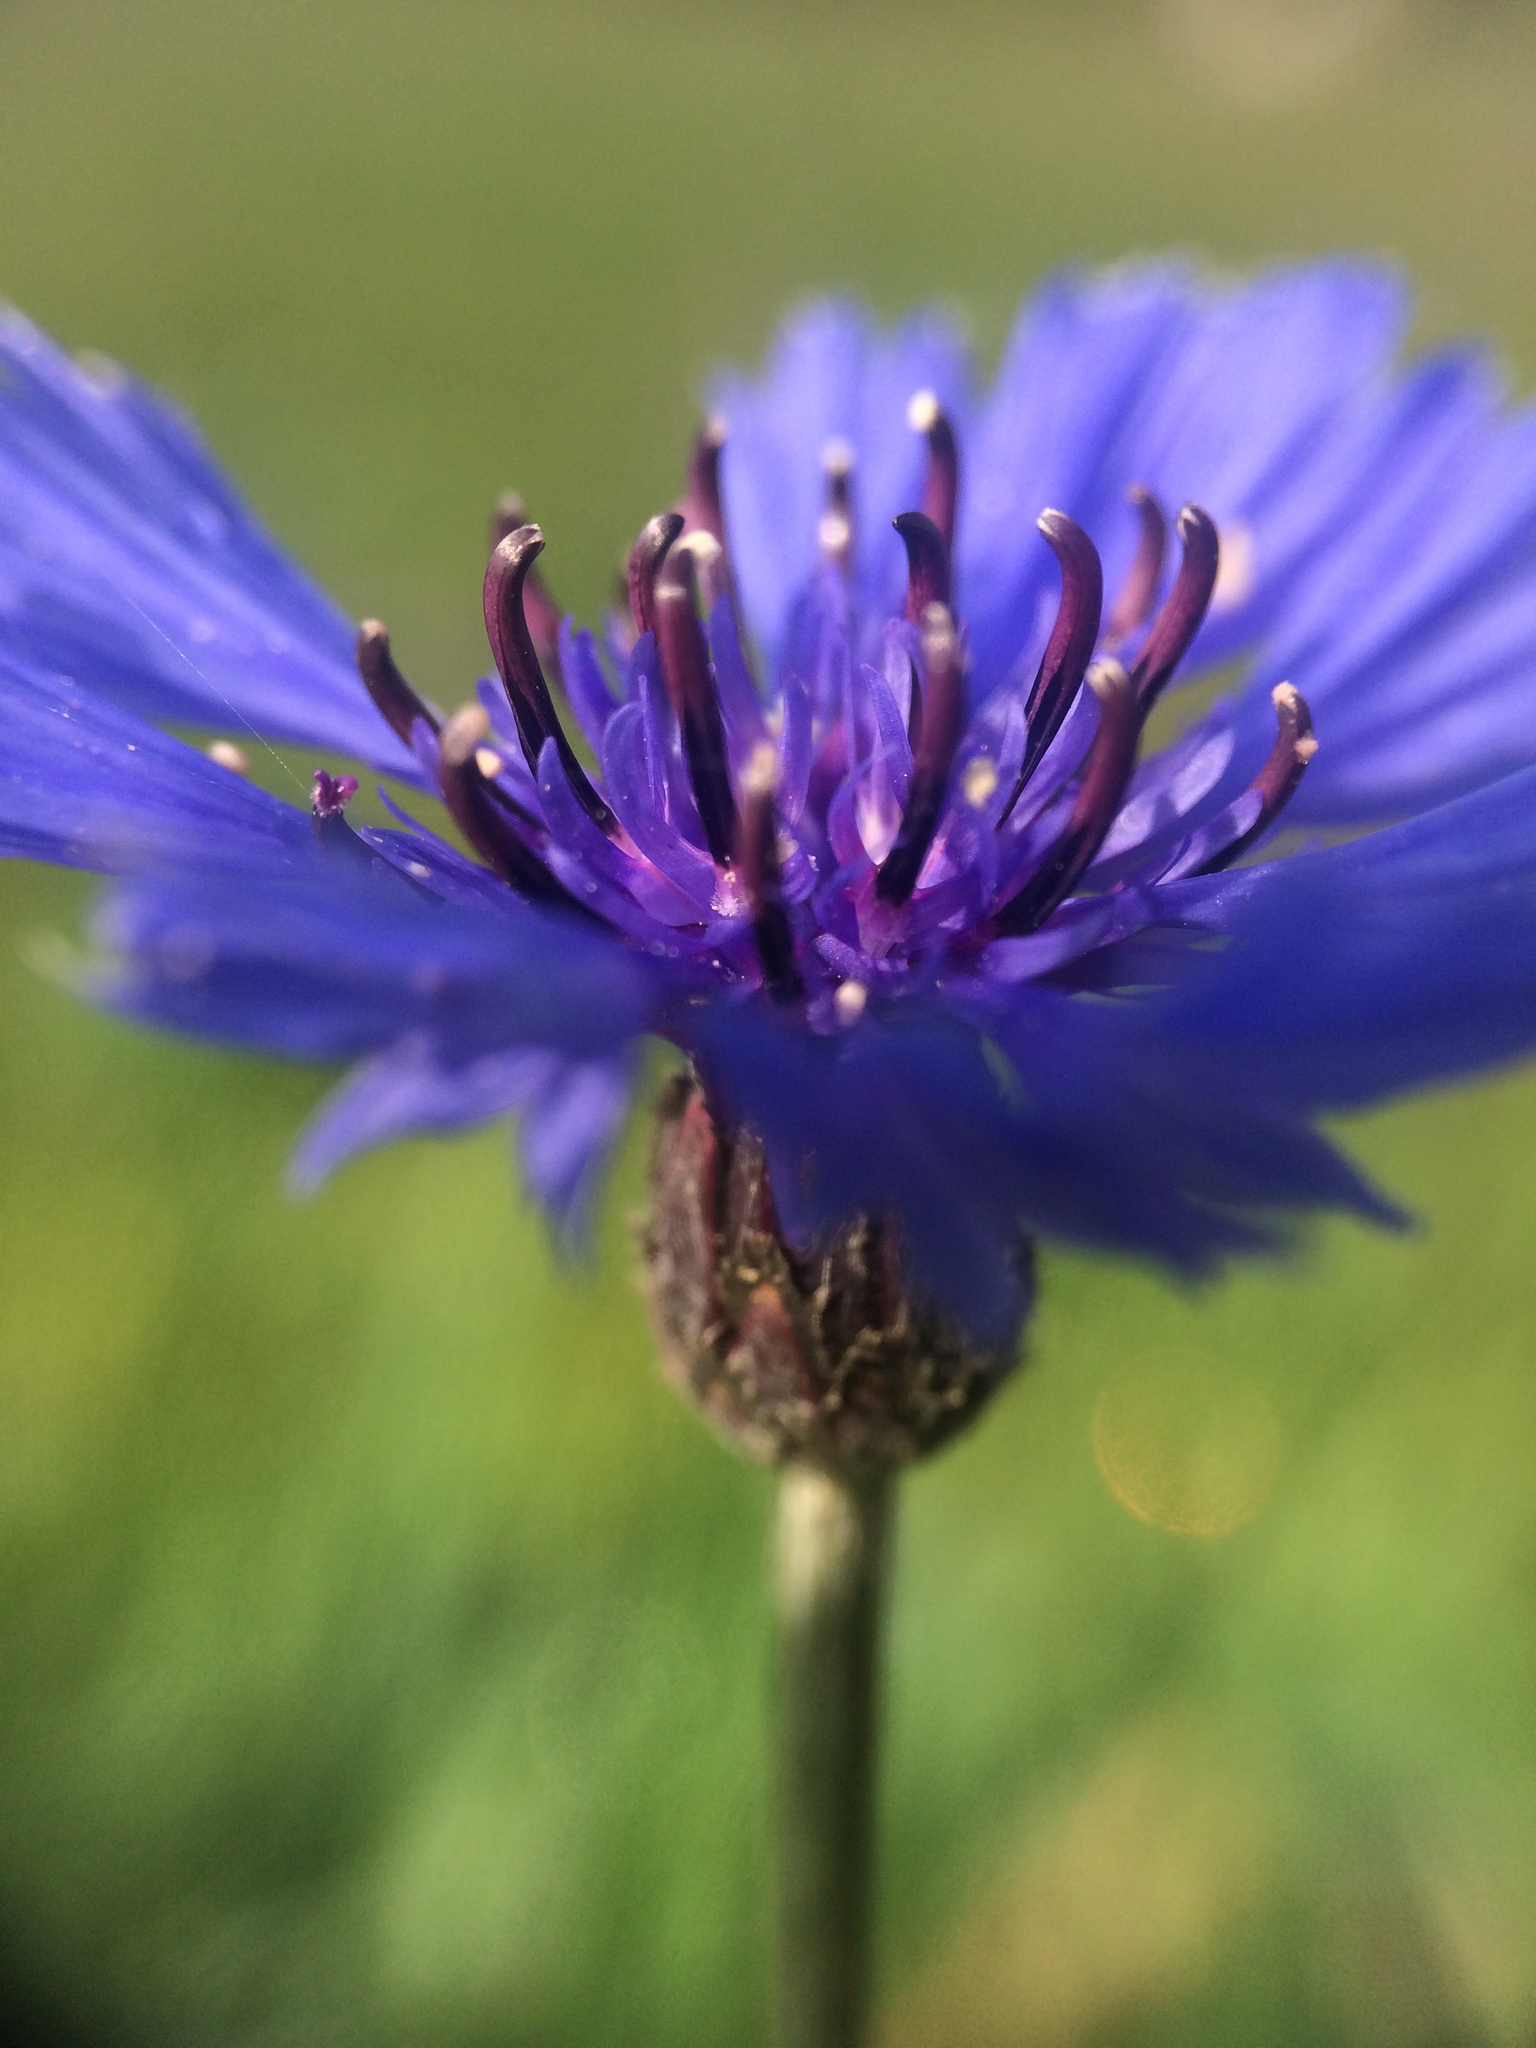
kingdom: Plantae
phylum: Tracheophyta
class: Magnoliopsida
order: Asterales
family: Asteraceae
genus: Centaurea
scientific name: Centaurea cyanus
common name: Cornflower
